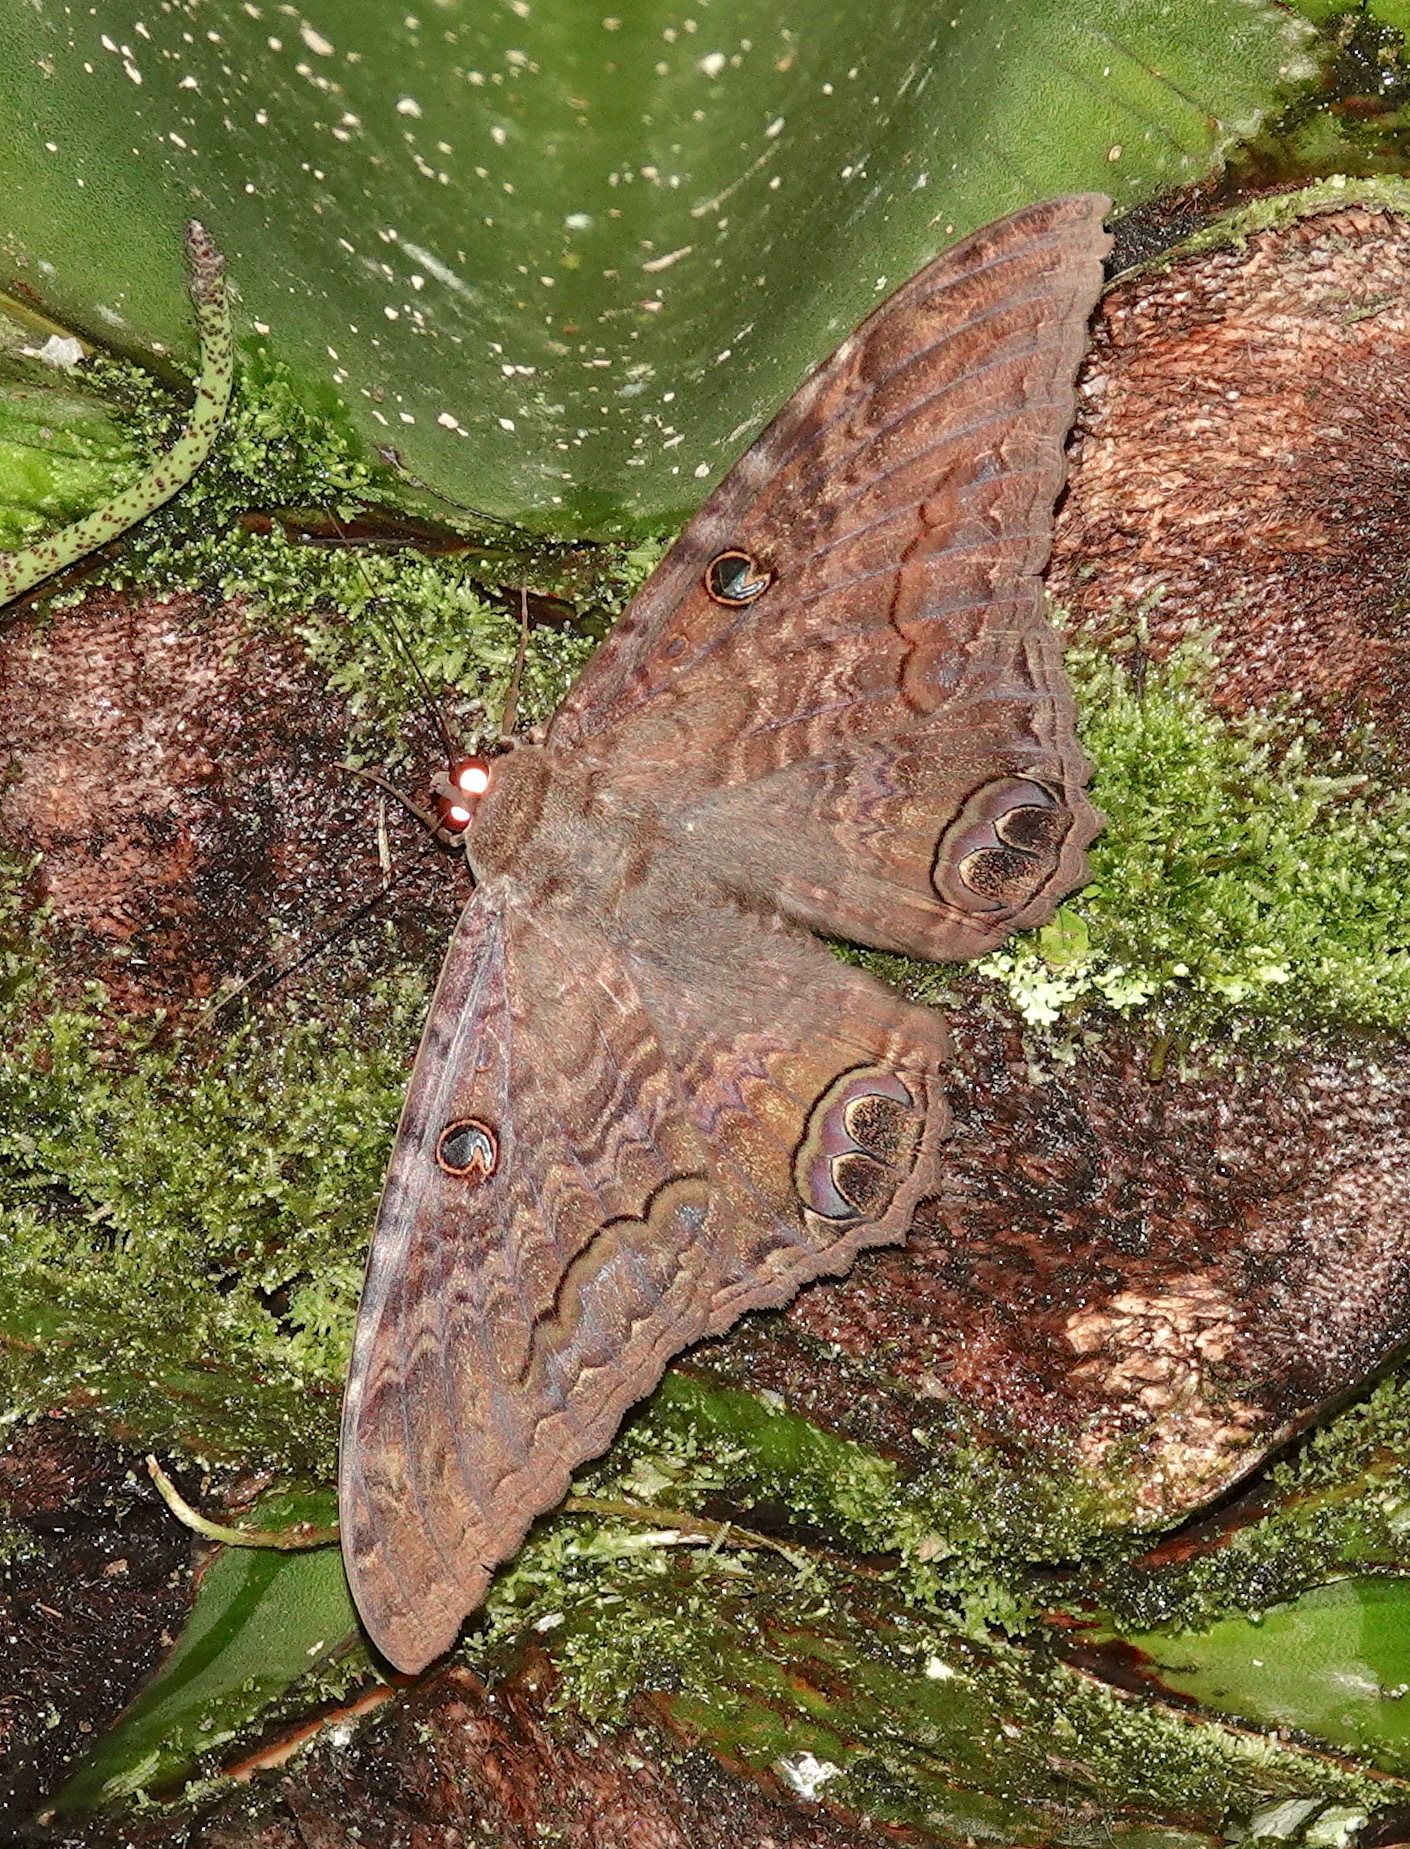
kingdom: Animalia
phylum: Arthropoda
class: Insecta
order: Lepidoptera
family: Erebidae
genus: Ascalapha
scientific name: Ascalapha odorata
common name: Black witch
